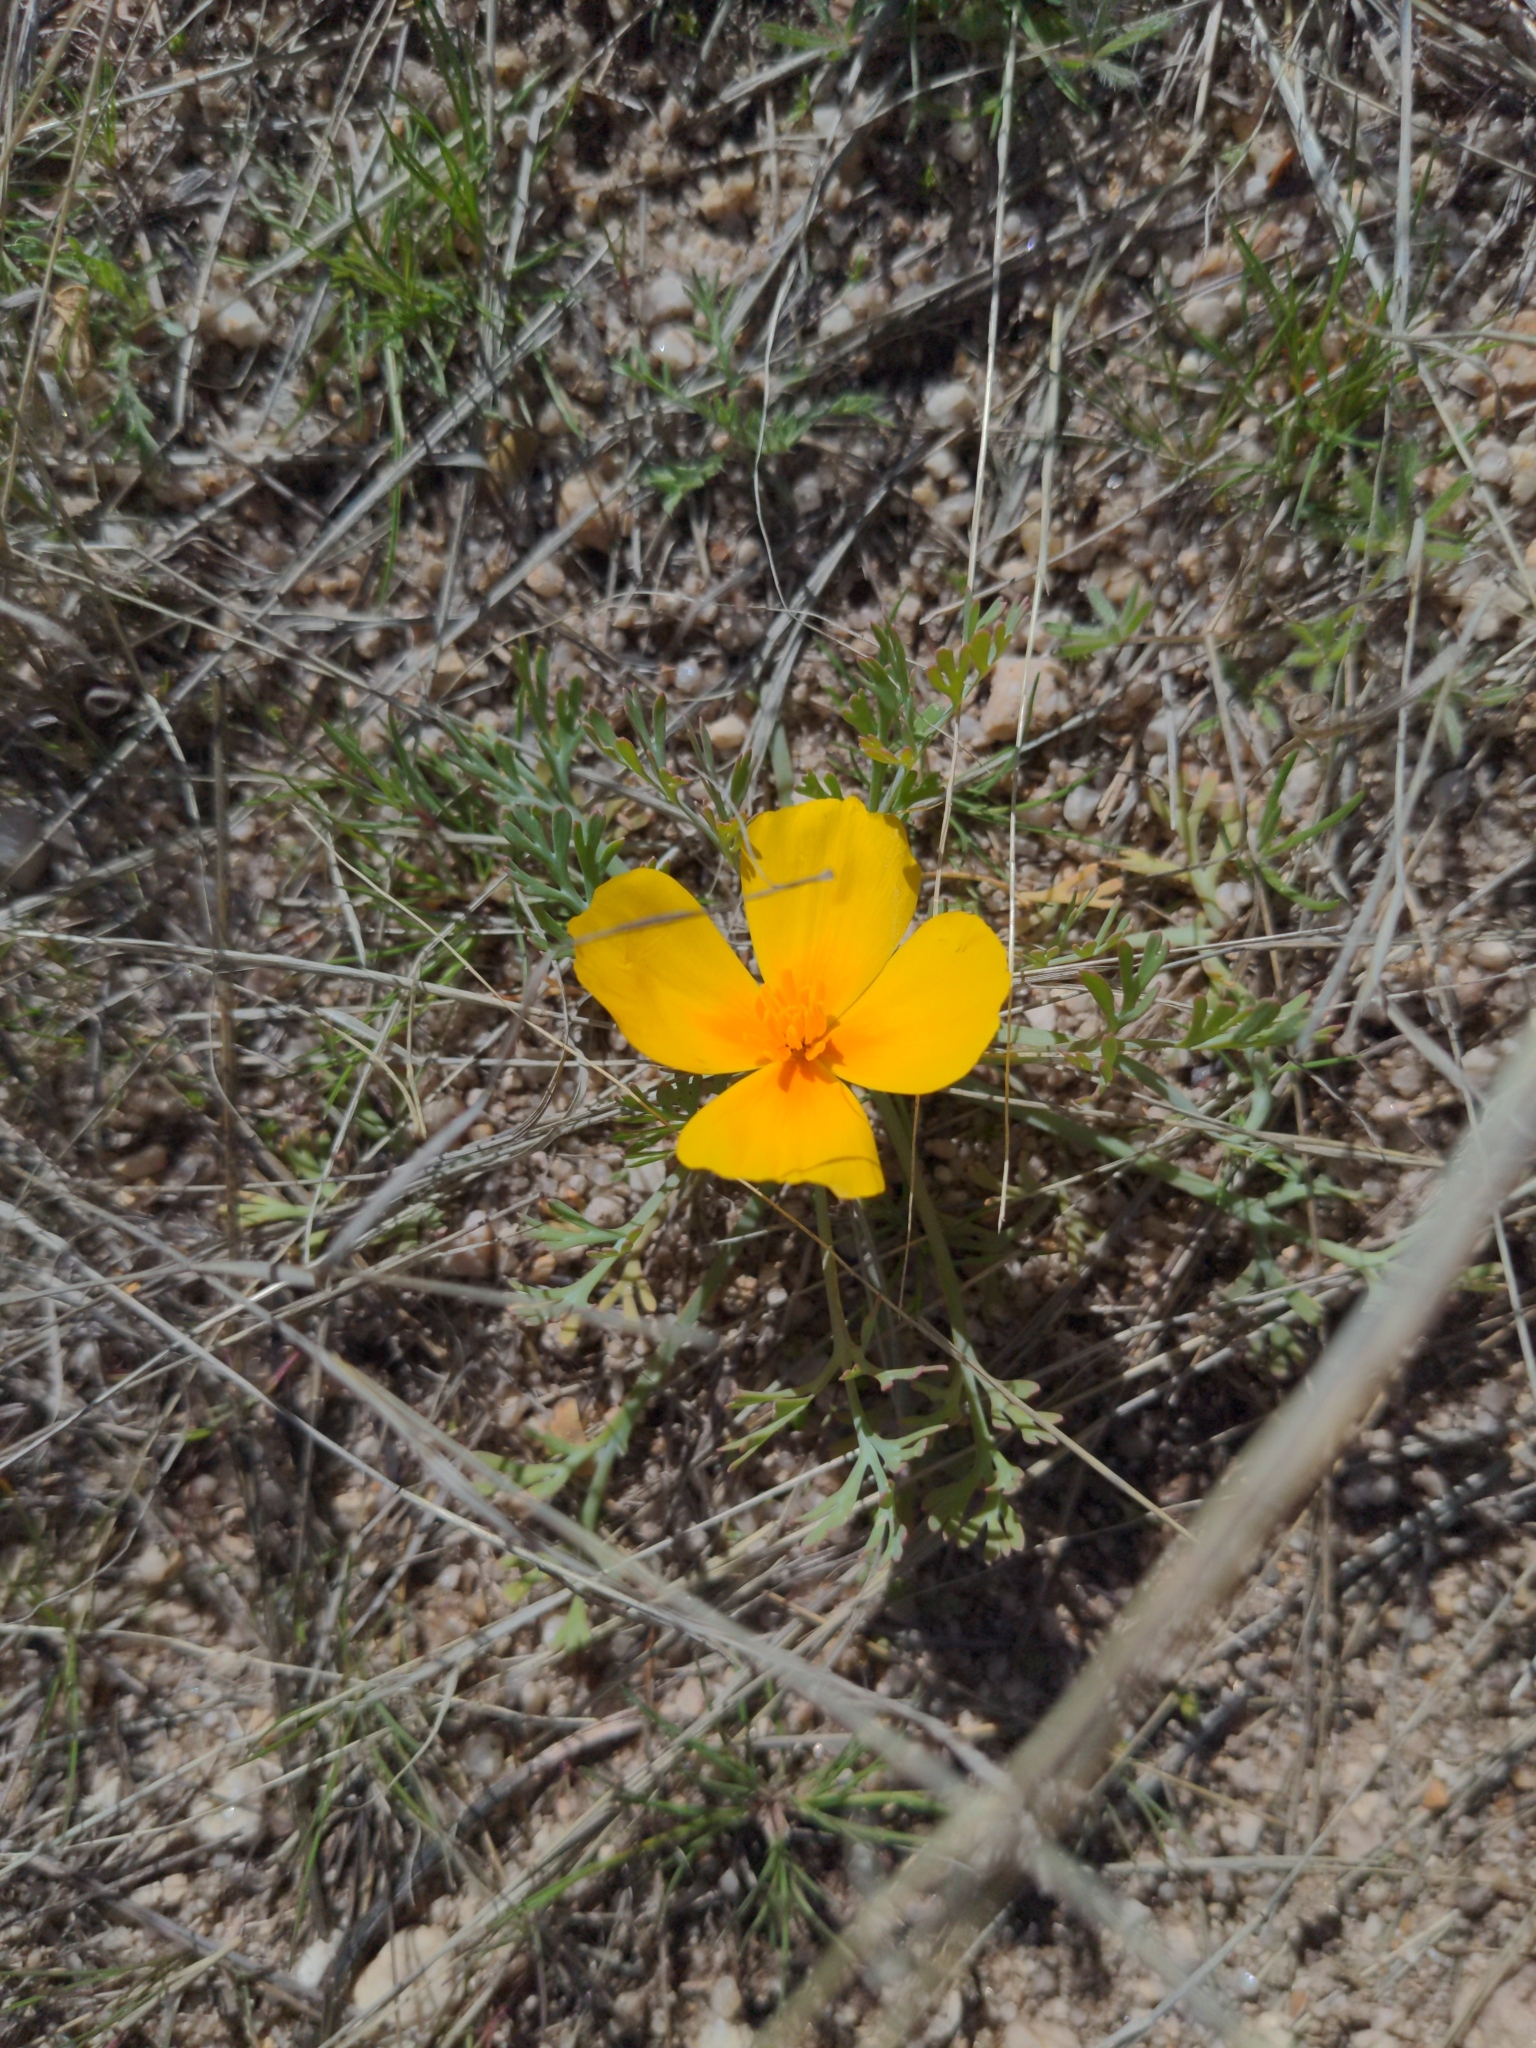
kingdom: Plantae
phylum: Tracheophyta
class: Magnoliopsida
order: Ranunculales
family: Papaveraceae
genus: Eschscholzia
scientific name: Eschscholzia californica
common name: California poppy
